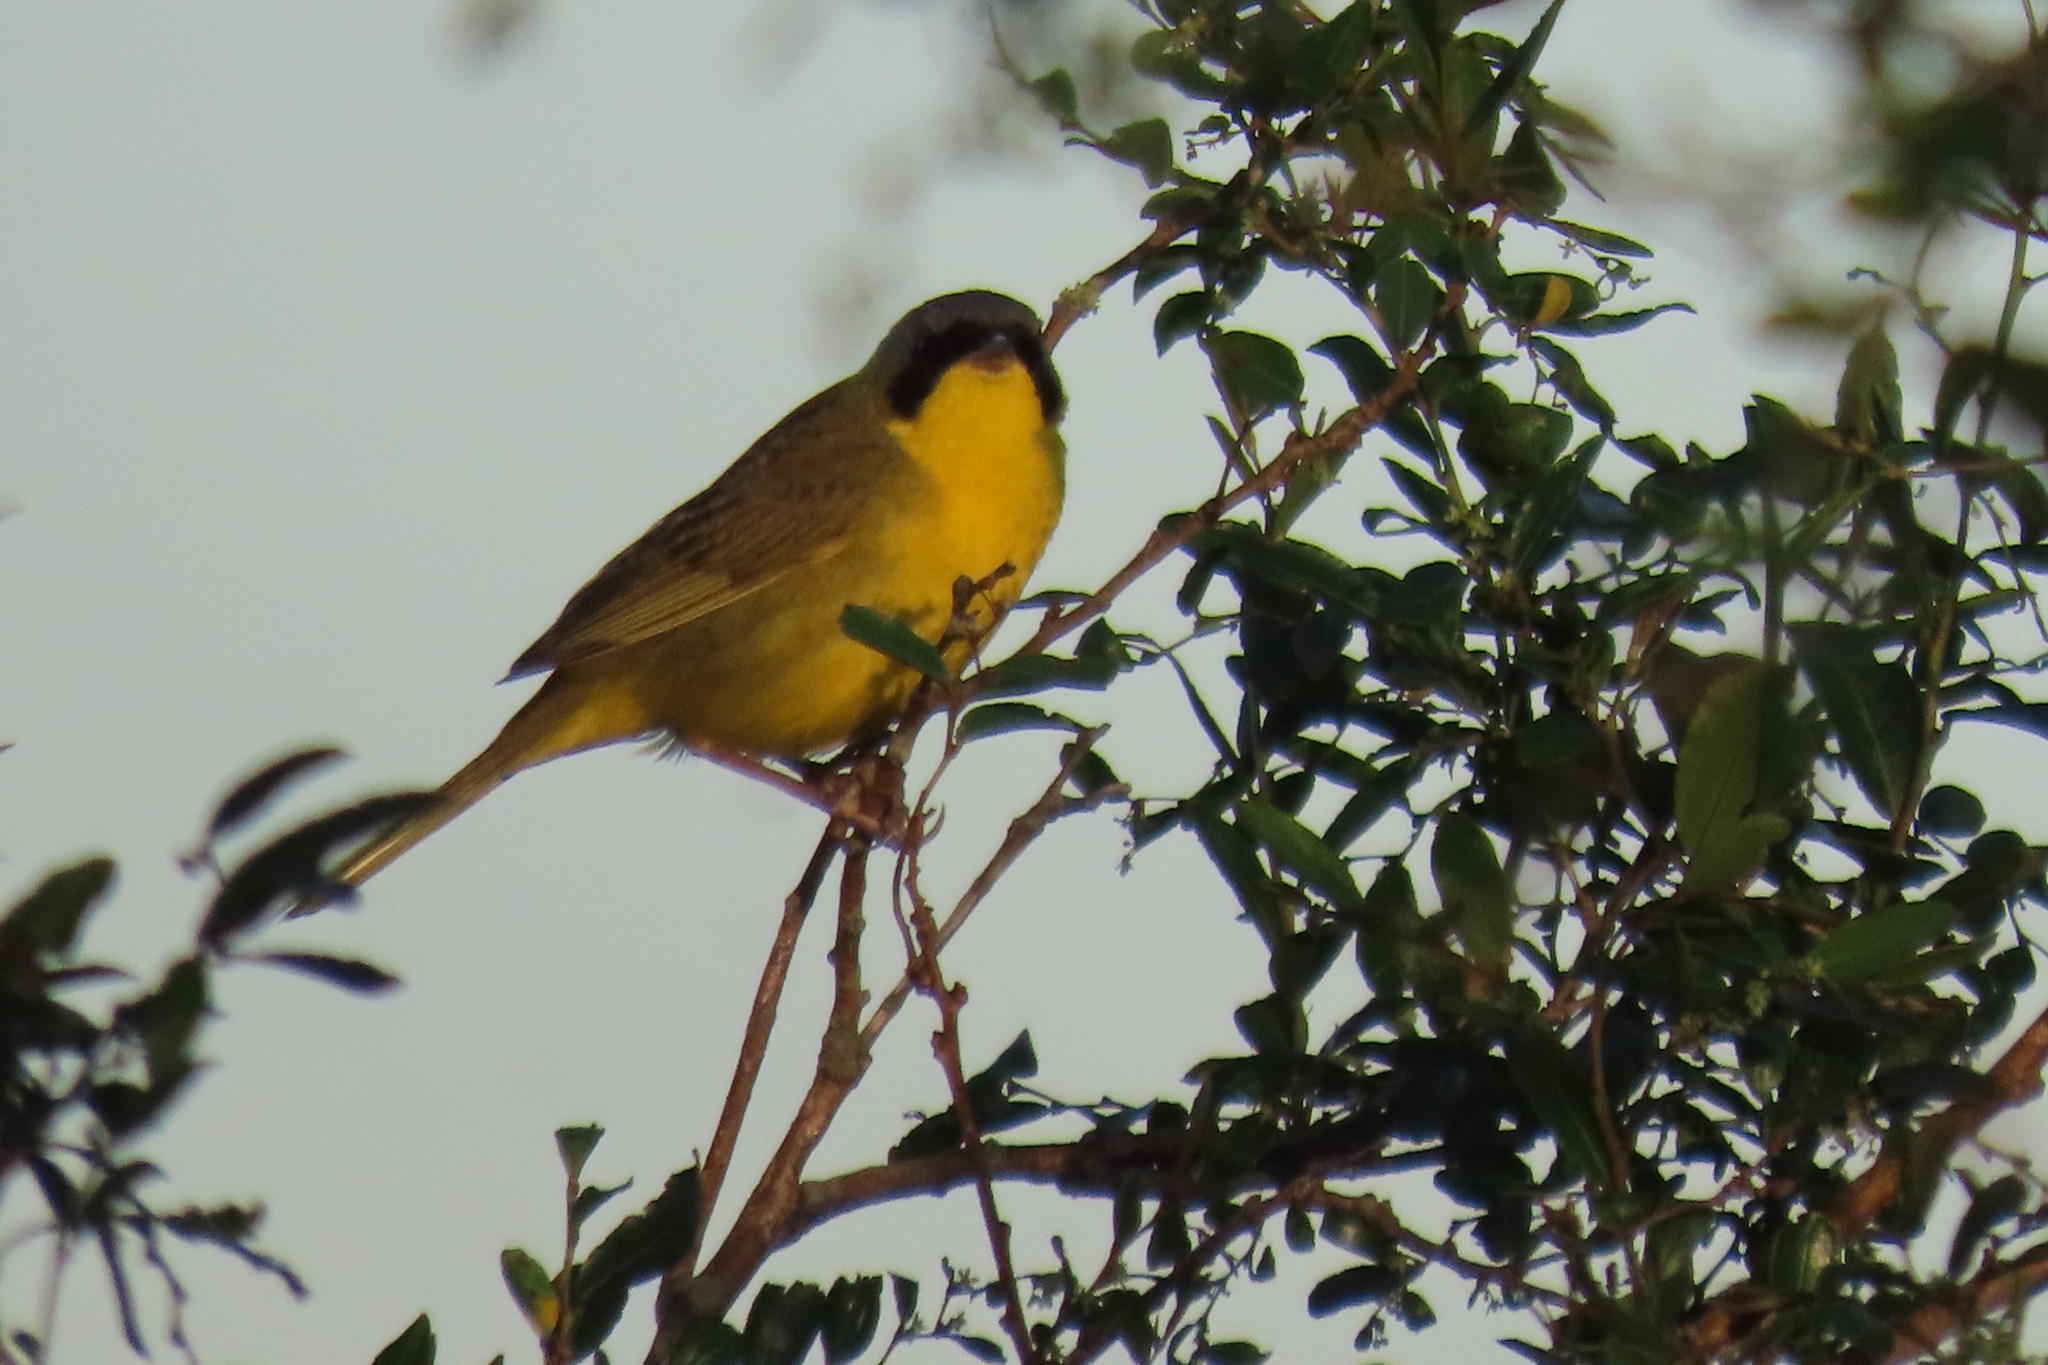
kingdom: Animalia
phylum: Chordata
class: Aves
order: Passeriformes
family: Parulidae
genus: Geothlypis
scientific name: Geothlypis velata
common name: Southern yellowthroat
